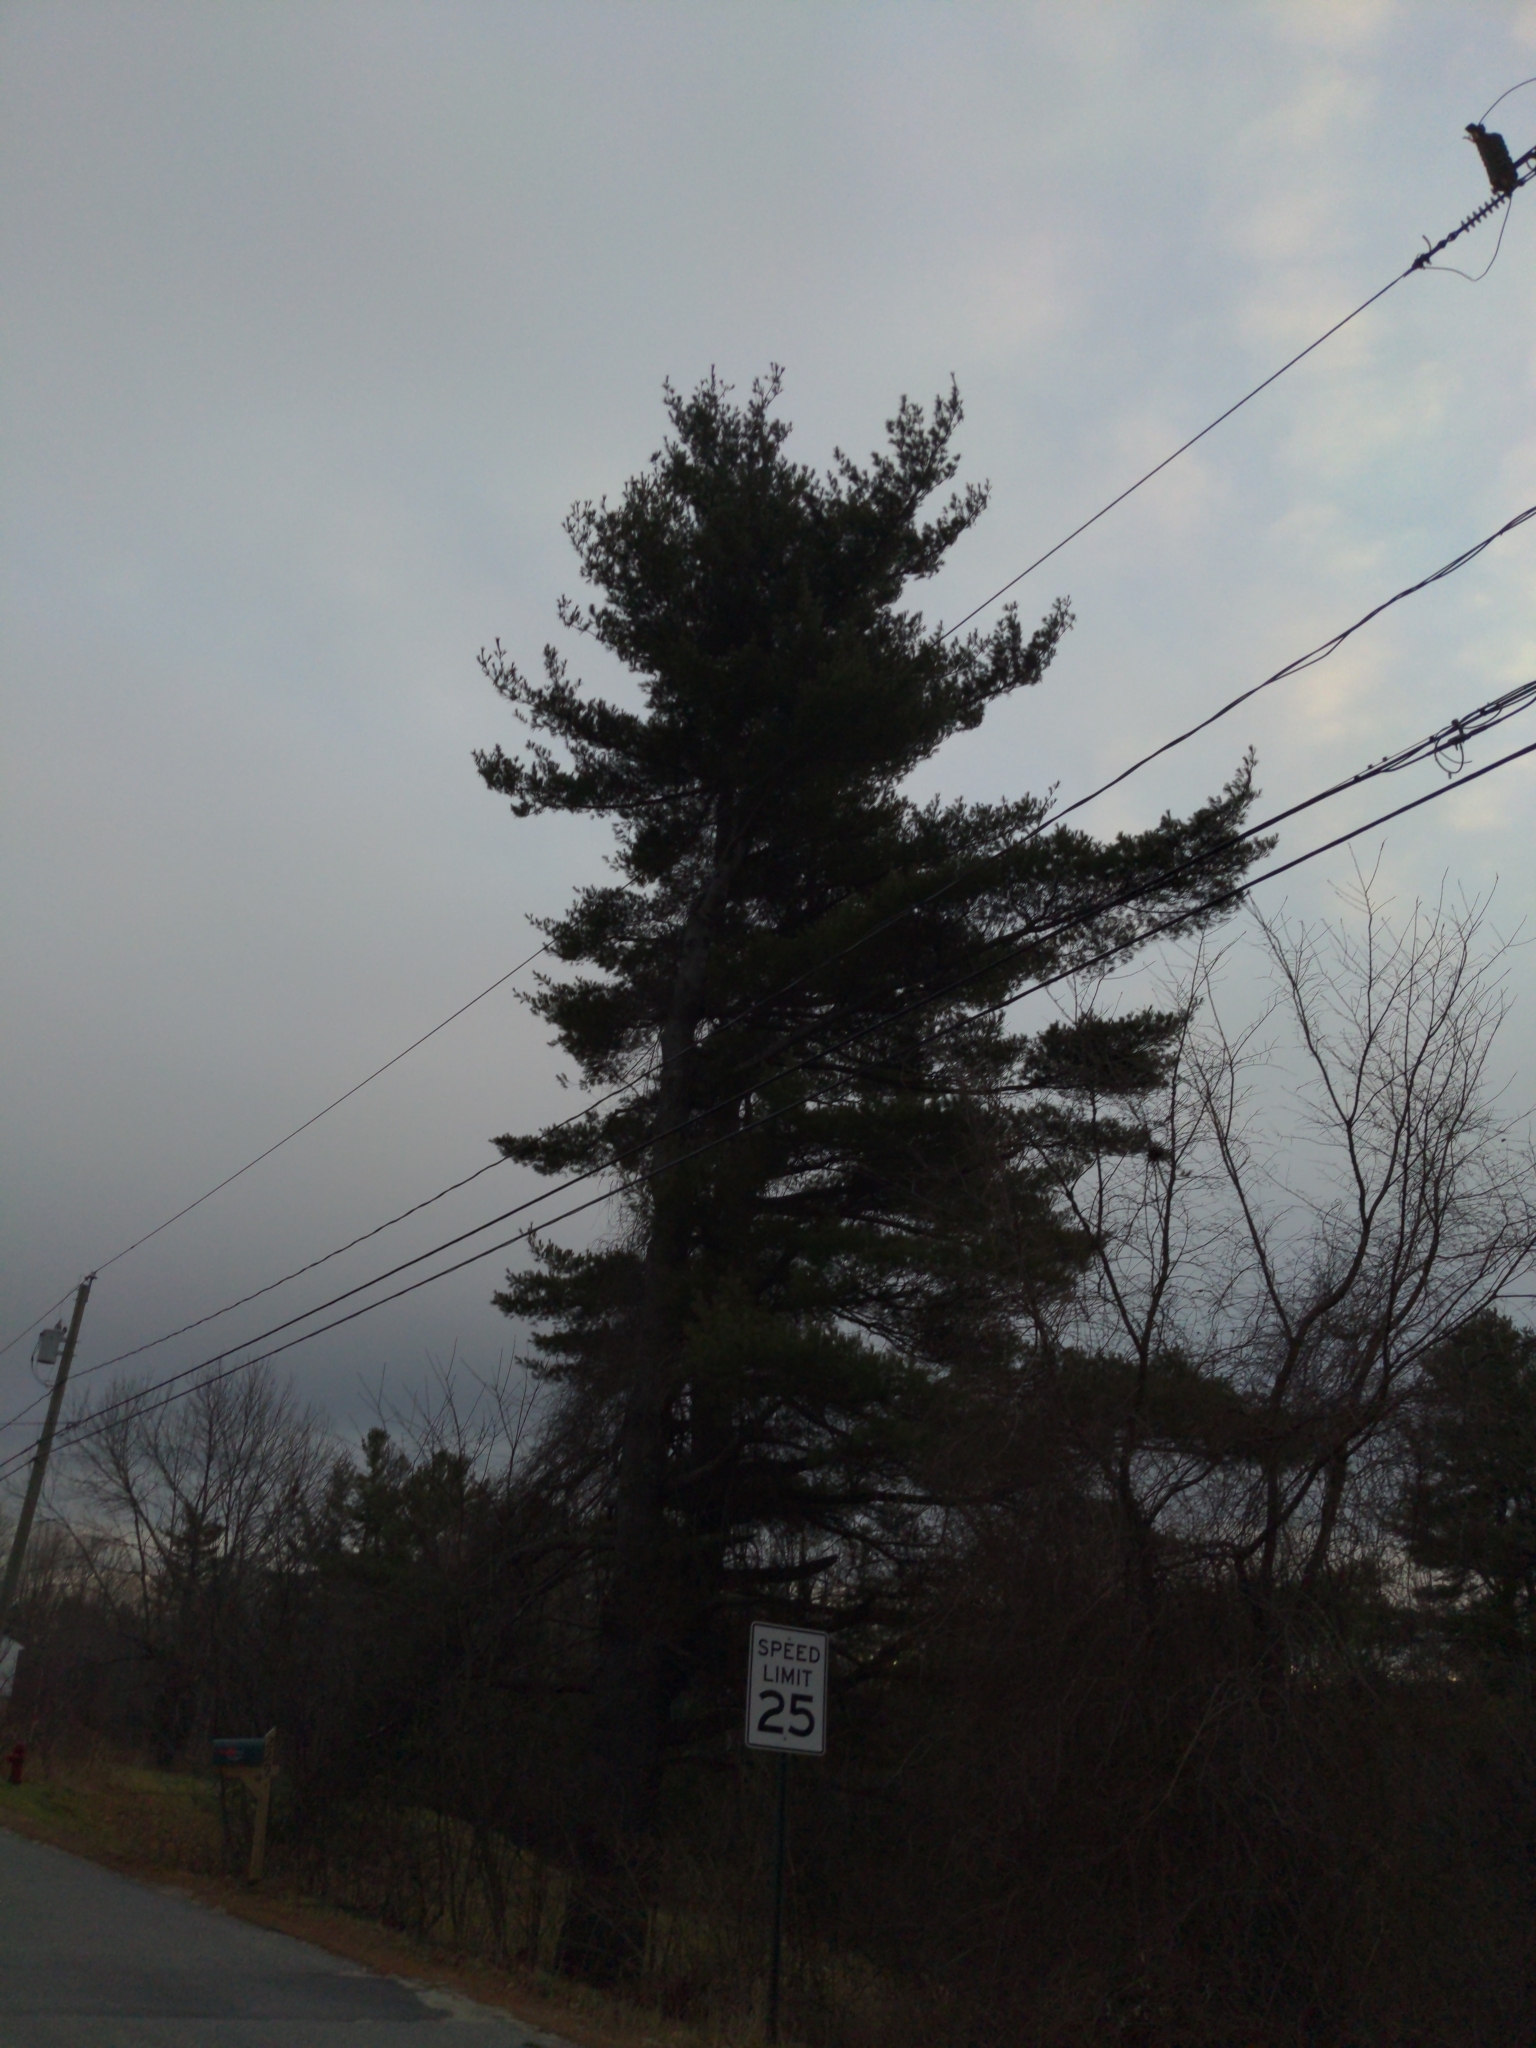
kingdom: Plantae
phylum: Tracheophyta
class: Pinopsida
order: Pinales
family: Pinaceae
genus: Pinus
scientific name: Pinus strobus
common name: Weymouth pine
